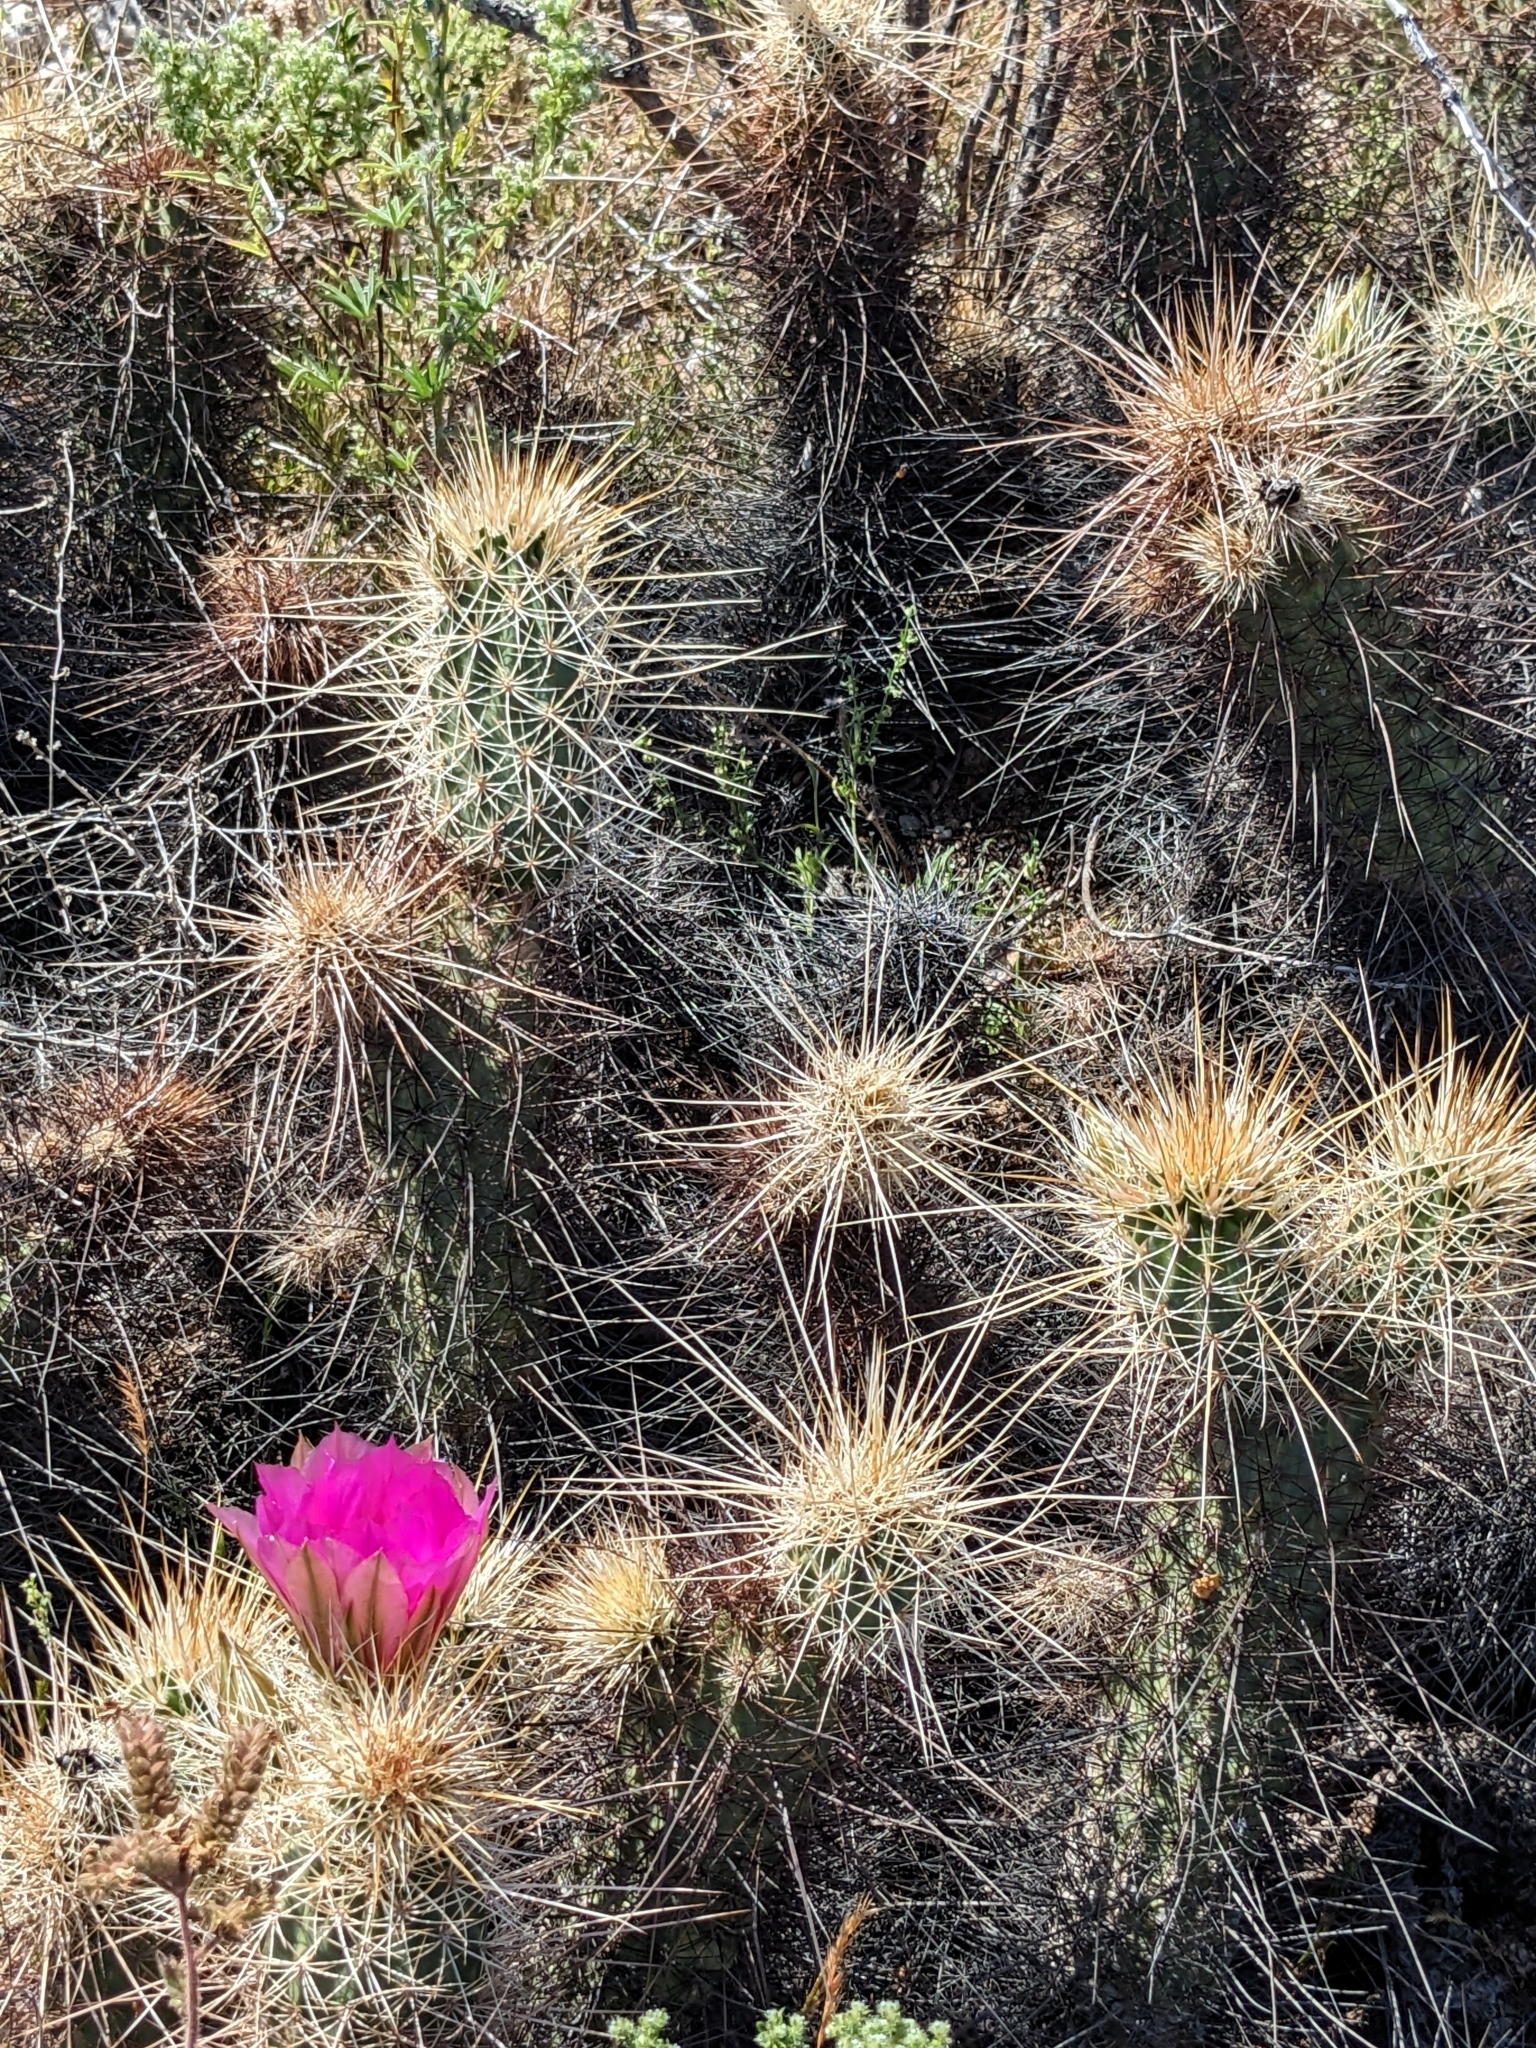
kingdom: Plantae
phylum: Tracheophyta
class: Magnoliopsida
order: Caryophyllales
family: Cactaceae
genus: Echinocereus
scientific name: Echinocereus engelmannii
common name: Engelmann's hedgehog cactus
